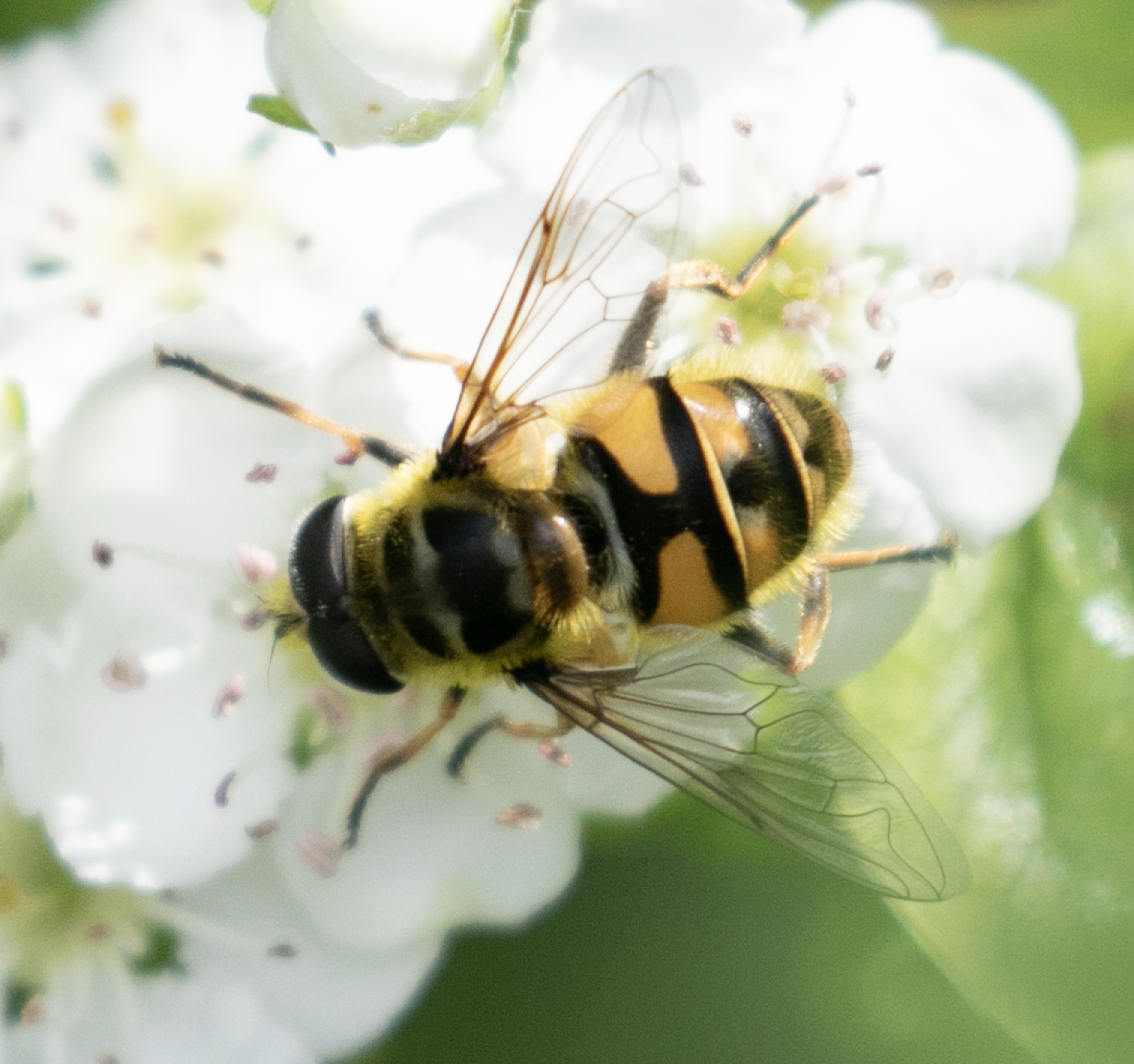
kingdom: Animalia
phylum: Arthropoda
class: Insecta
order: Diptera
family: Syrphidae
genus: Myathropa
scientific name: Myathropa florea
